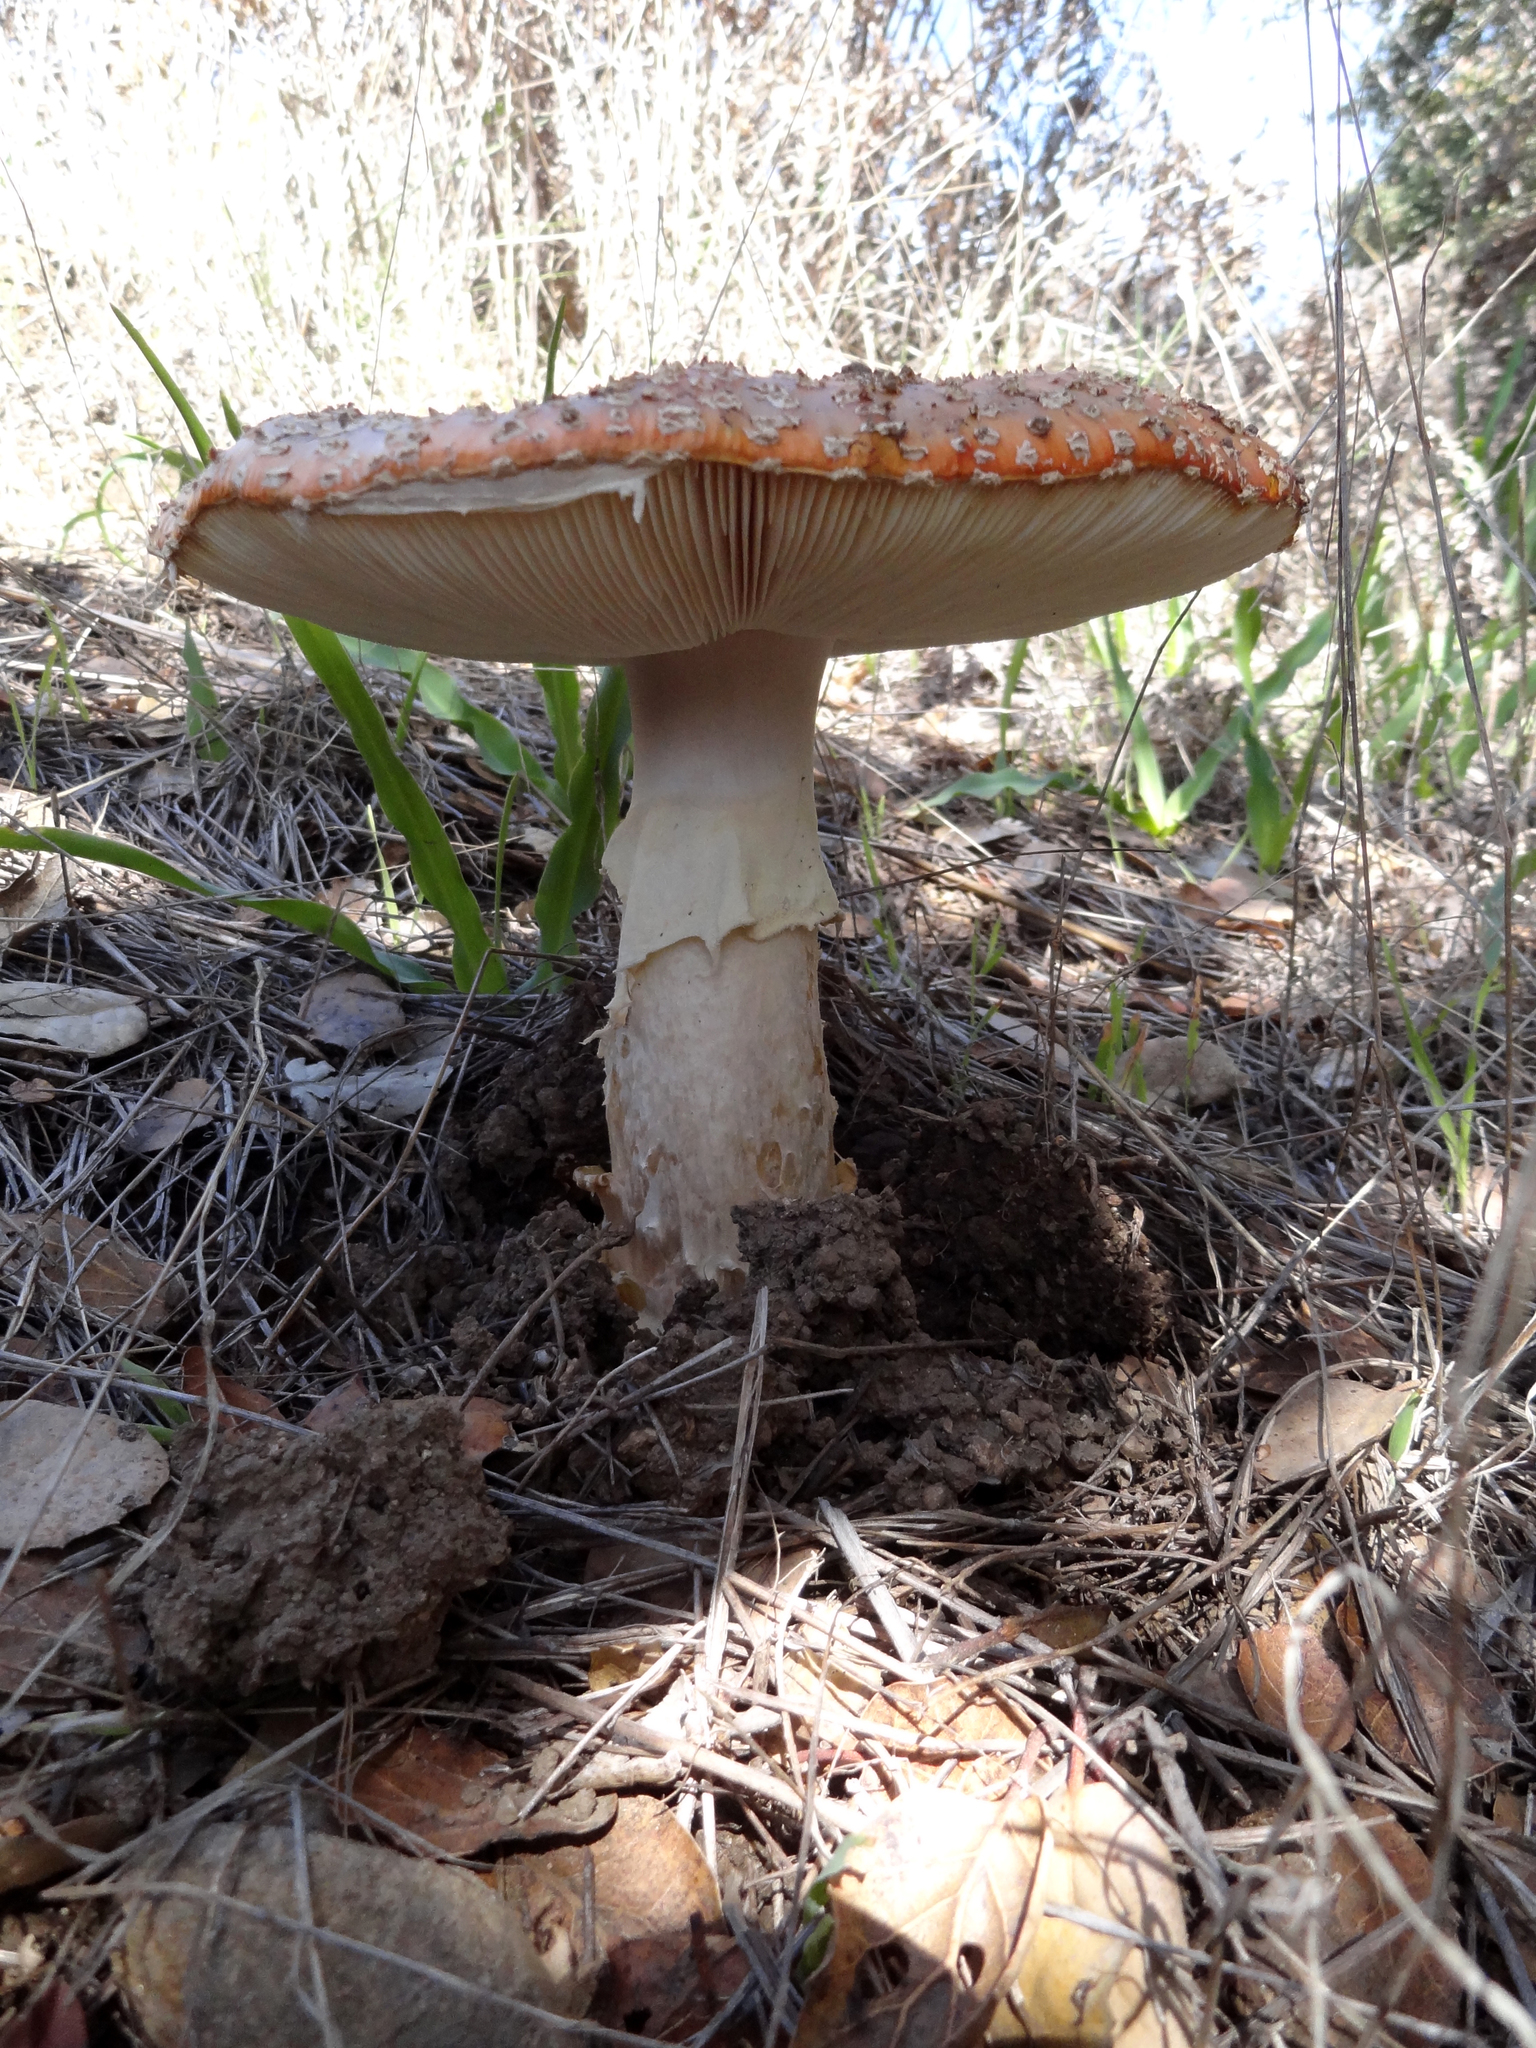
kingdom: Fungi
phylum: Basidiomycota
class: Agaricomycetes
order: Agaricales
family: Amanitaceae
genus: Amanita
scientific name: Amanita muscaria
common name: Fly agaric
